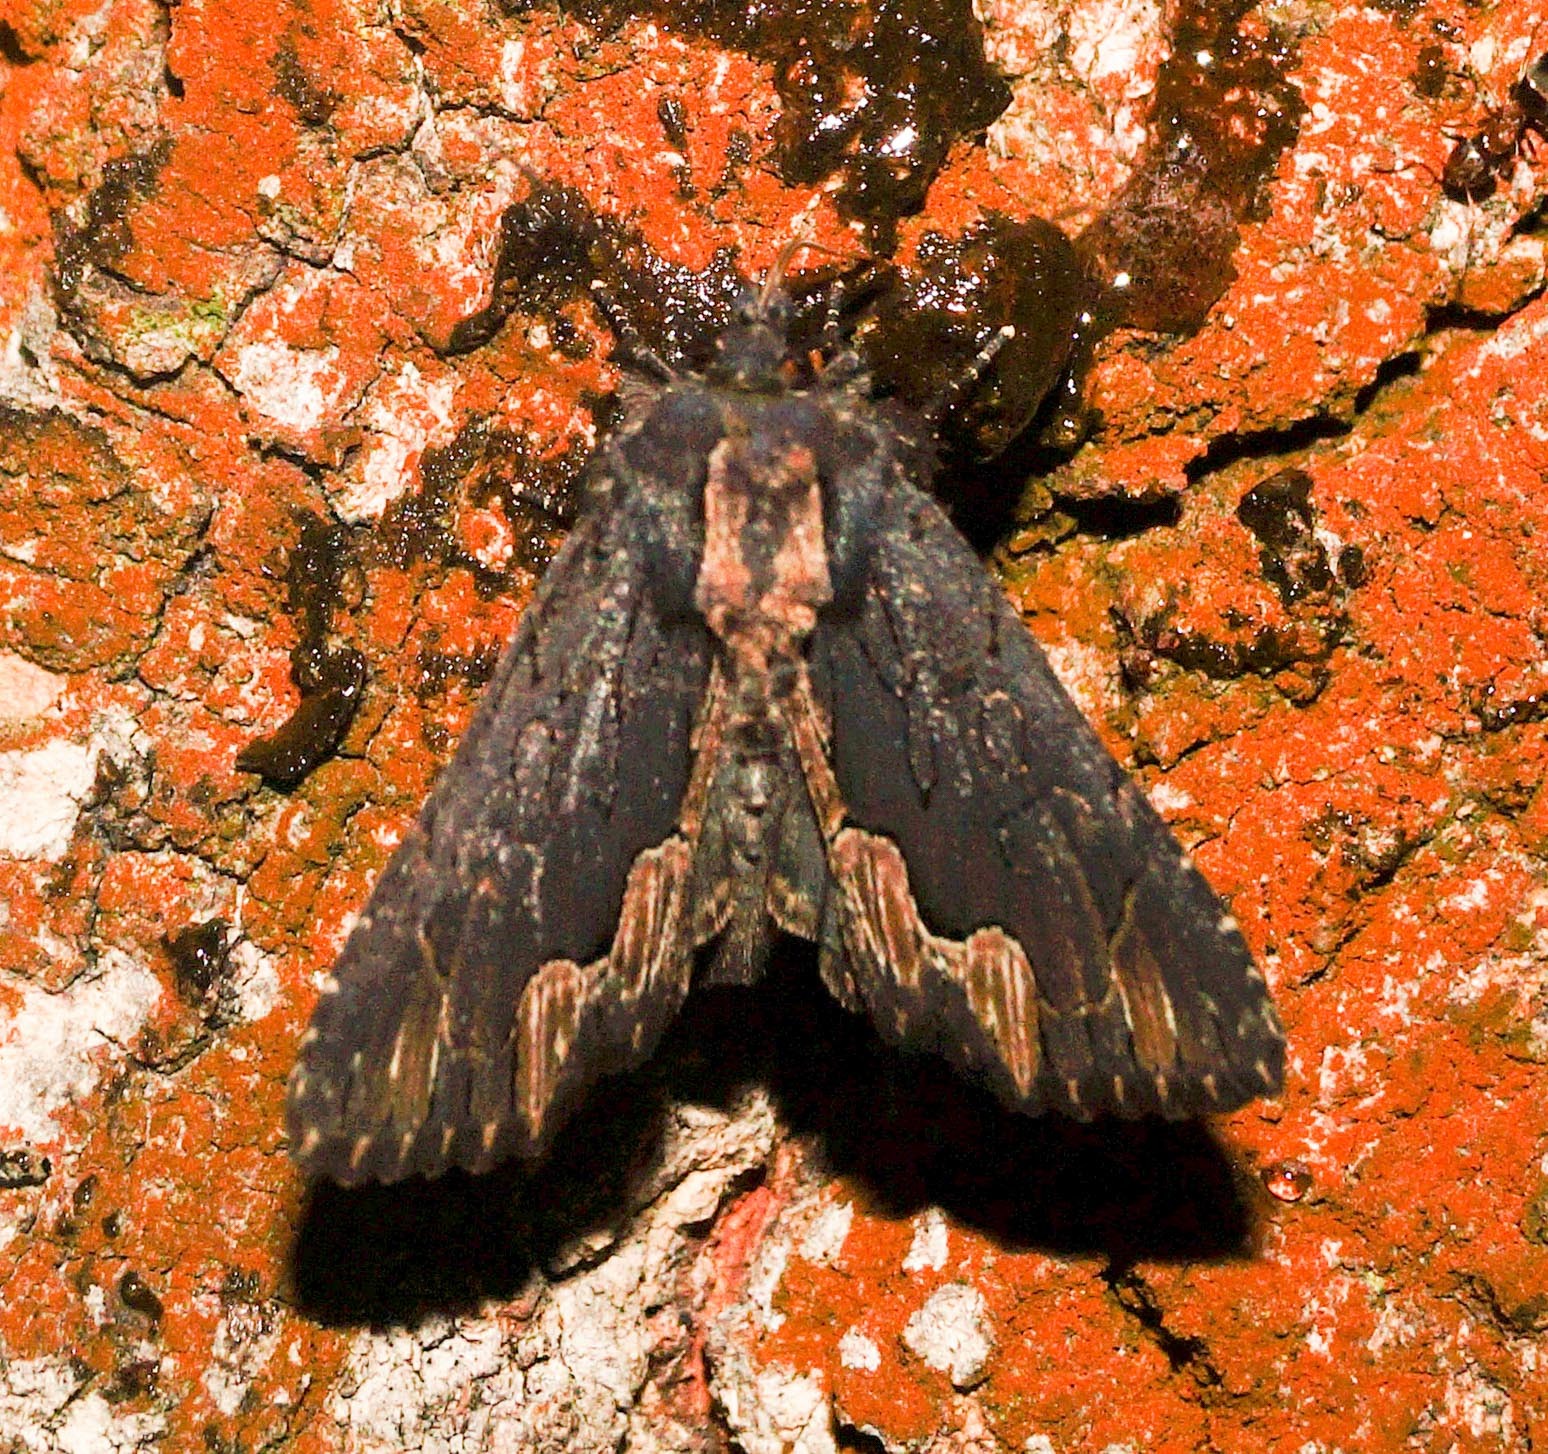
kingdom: Animalia
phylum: Arthropoda
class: Insecta
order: Lepidoptera
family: Noctuidae
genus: Dypterygia
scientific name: Dypterygia scabriuscula
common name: Bird's wing
